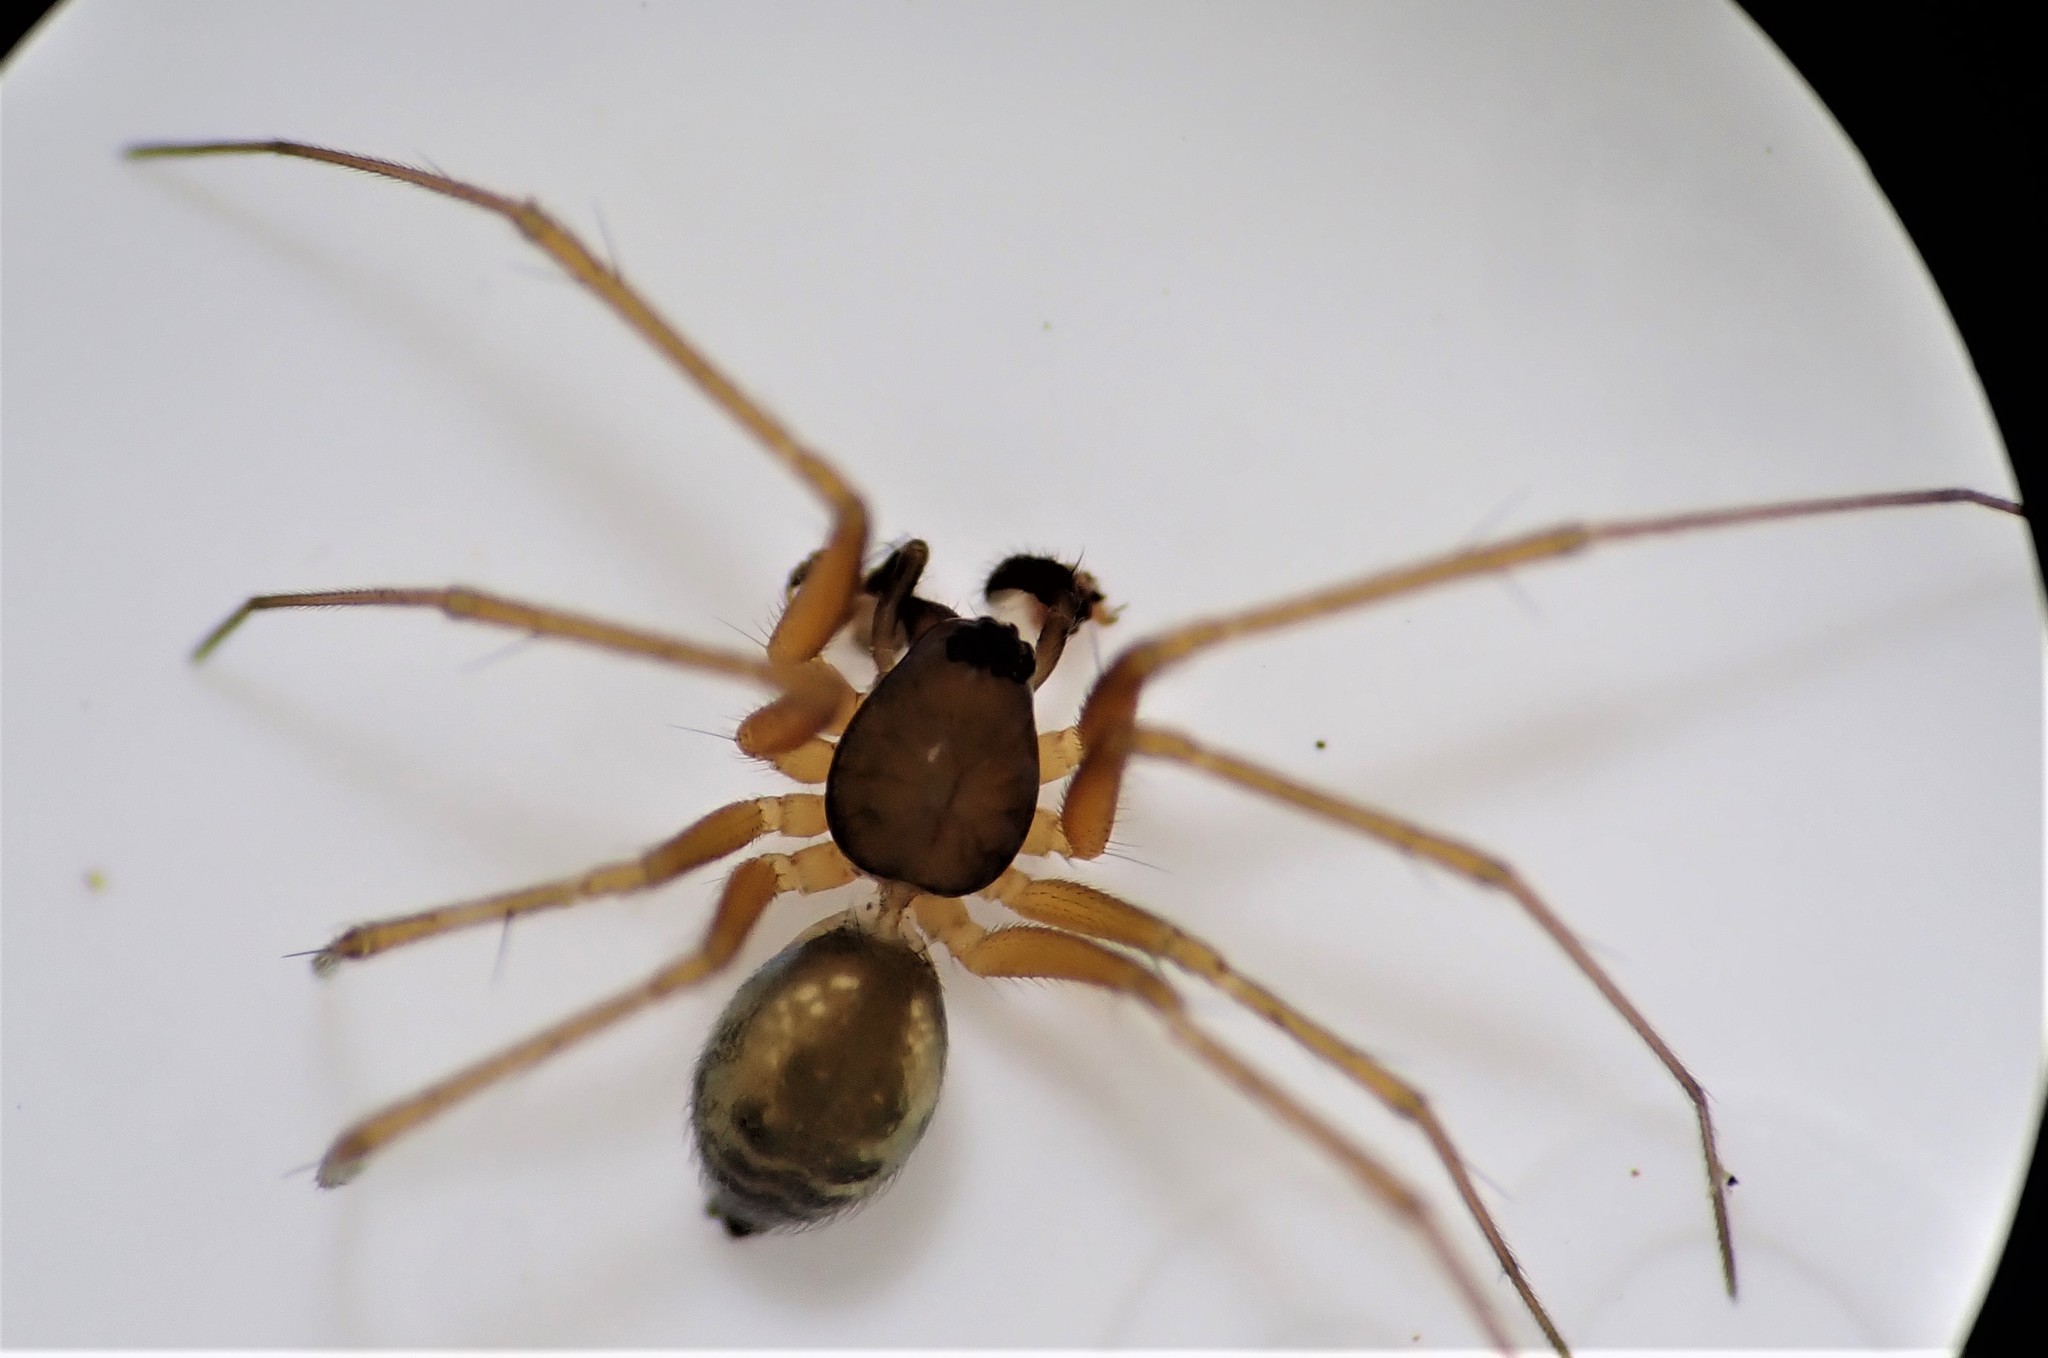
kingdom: Animalia
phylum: Arthropoda
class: Arachnida
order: Araneae
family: Linyphiidae
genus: Tenuiphantes
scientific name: Tenuiphantes tenuis
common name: Dwarf weaver
